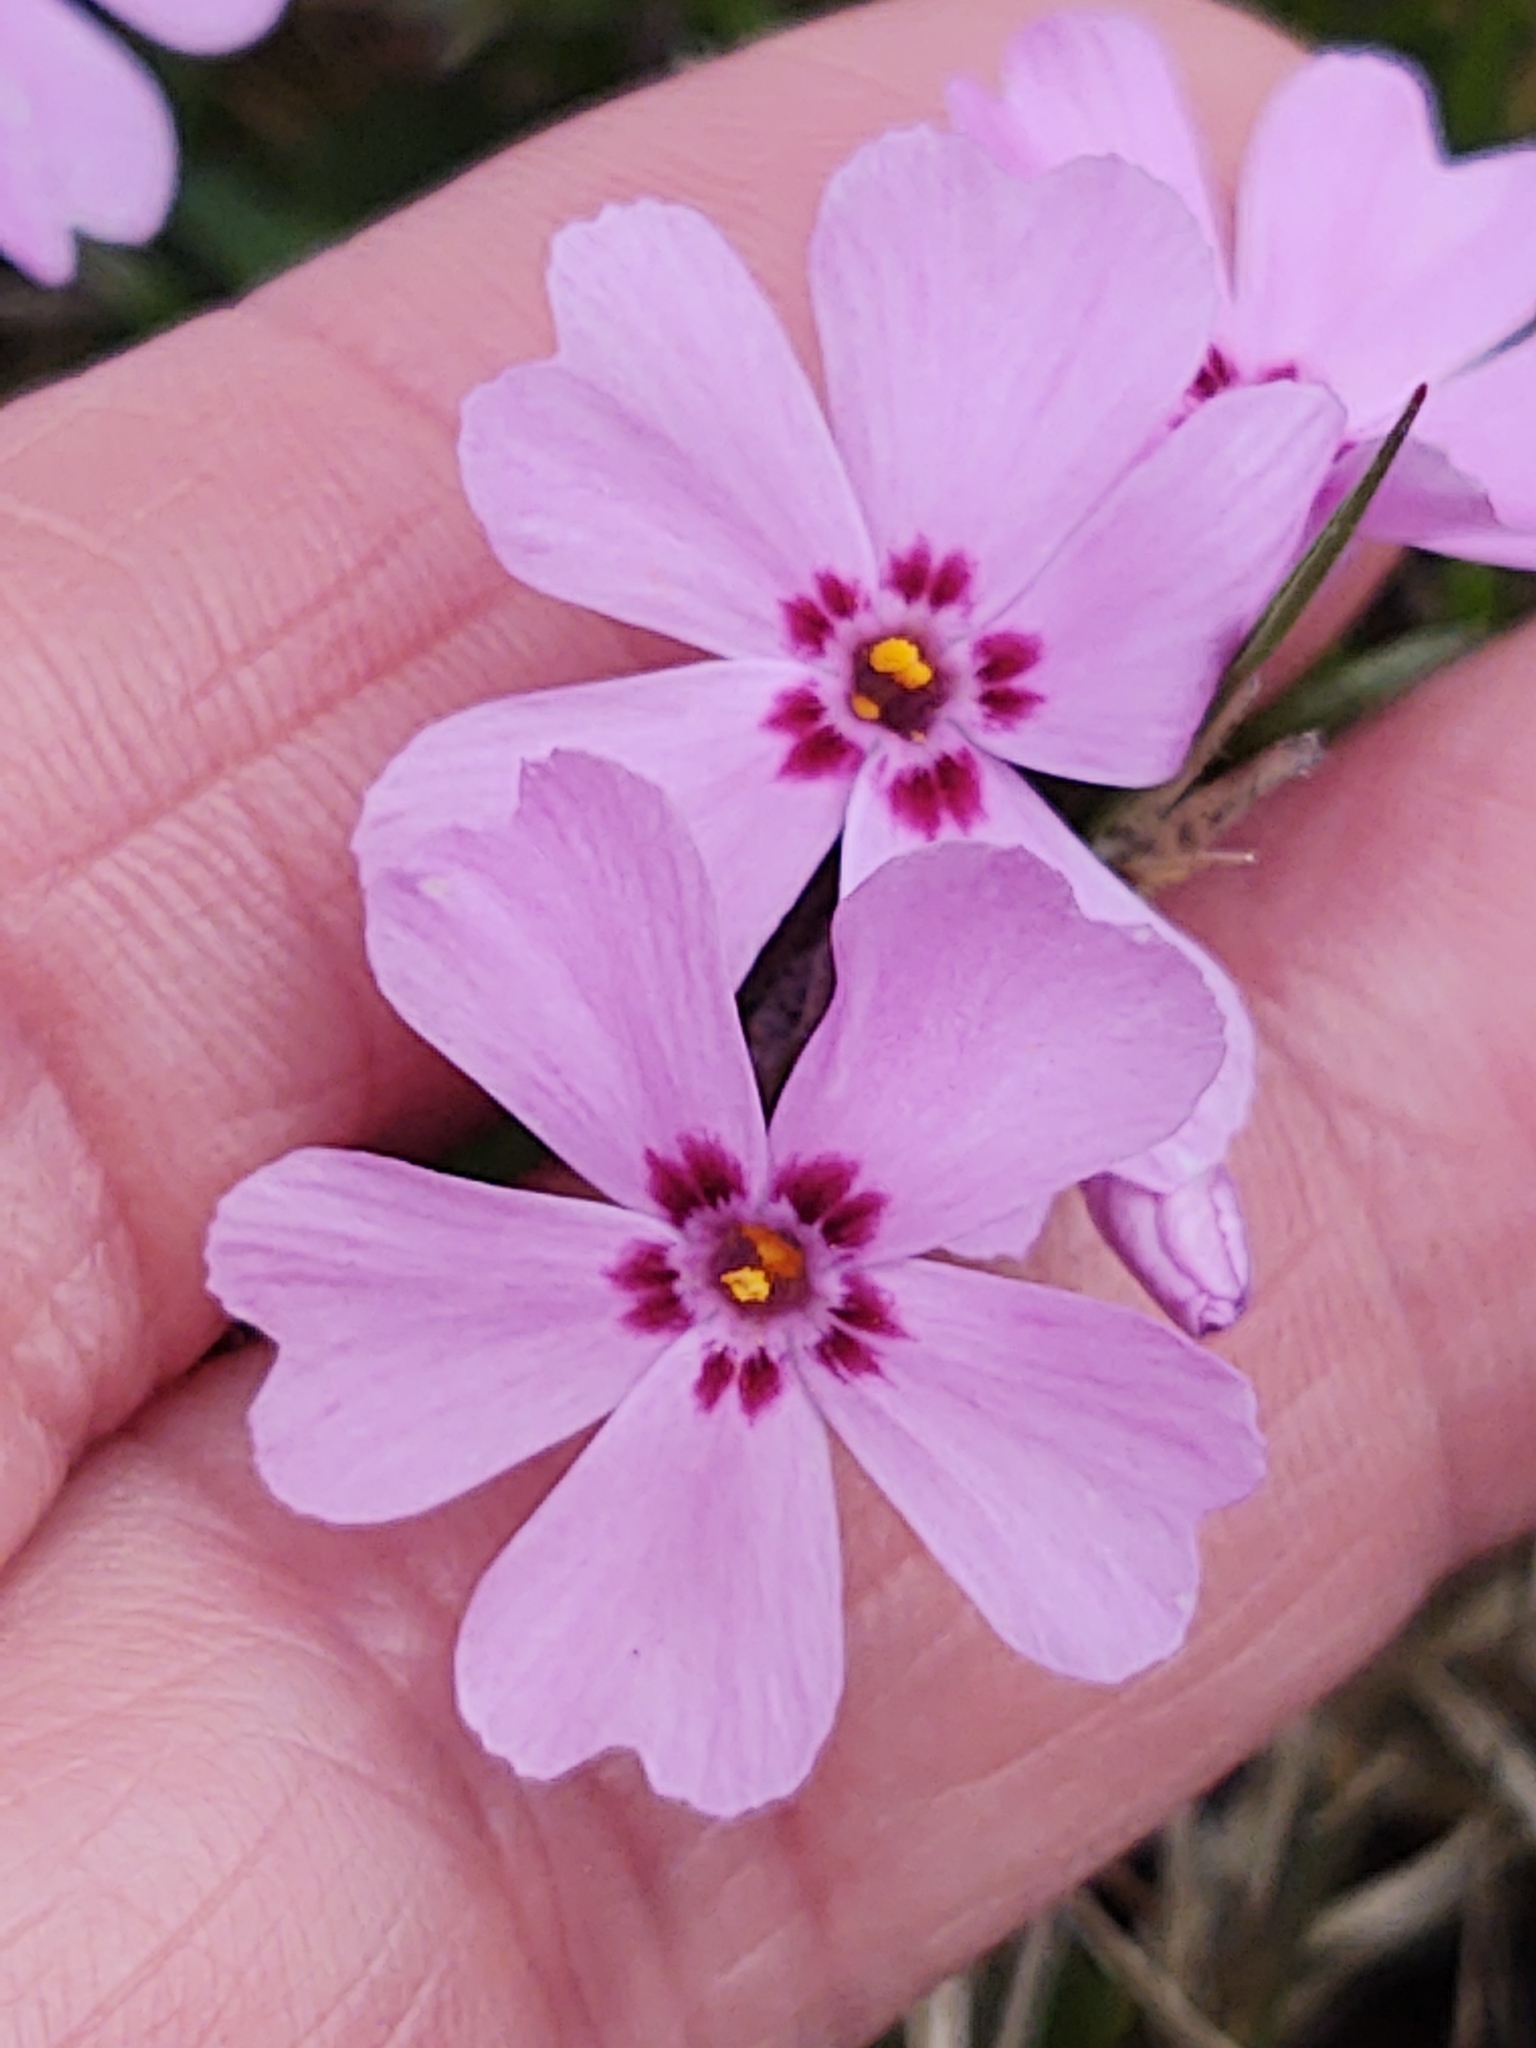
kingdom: Plantae
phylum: Tracheophyta
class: Magnoliopsida
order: Ericales
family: Polemoniaceae
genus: Phlox
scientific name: Phlox subulata
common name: Moss phlox
